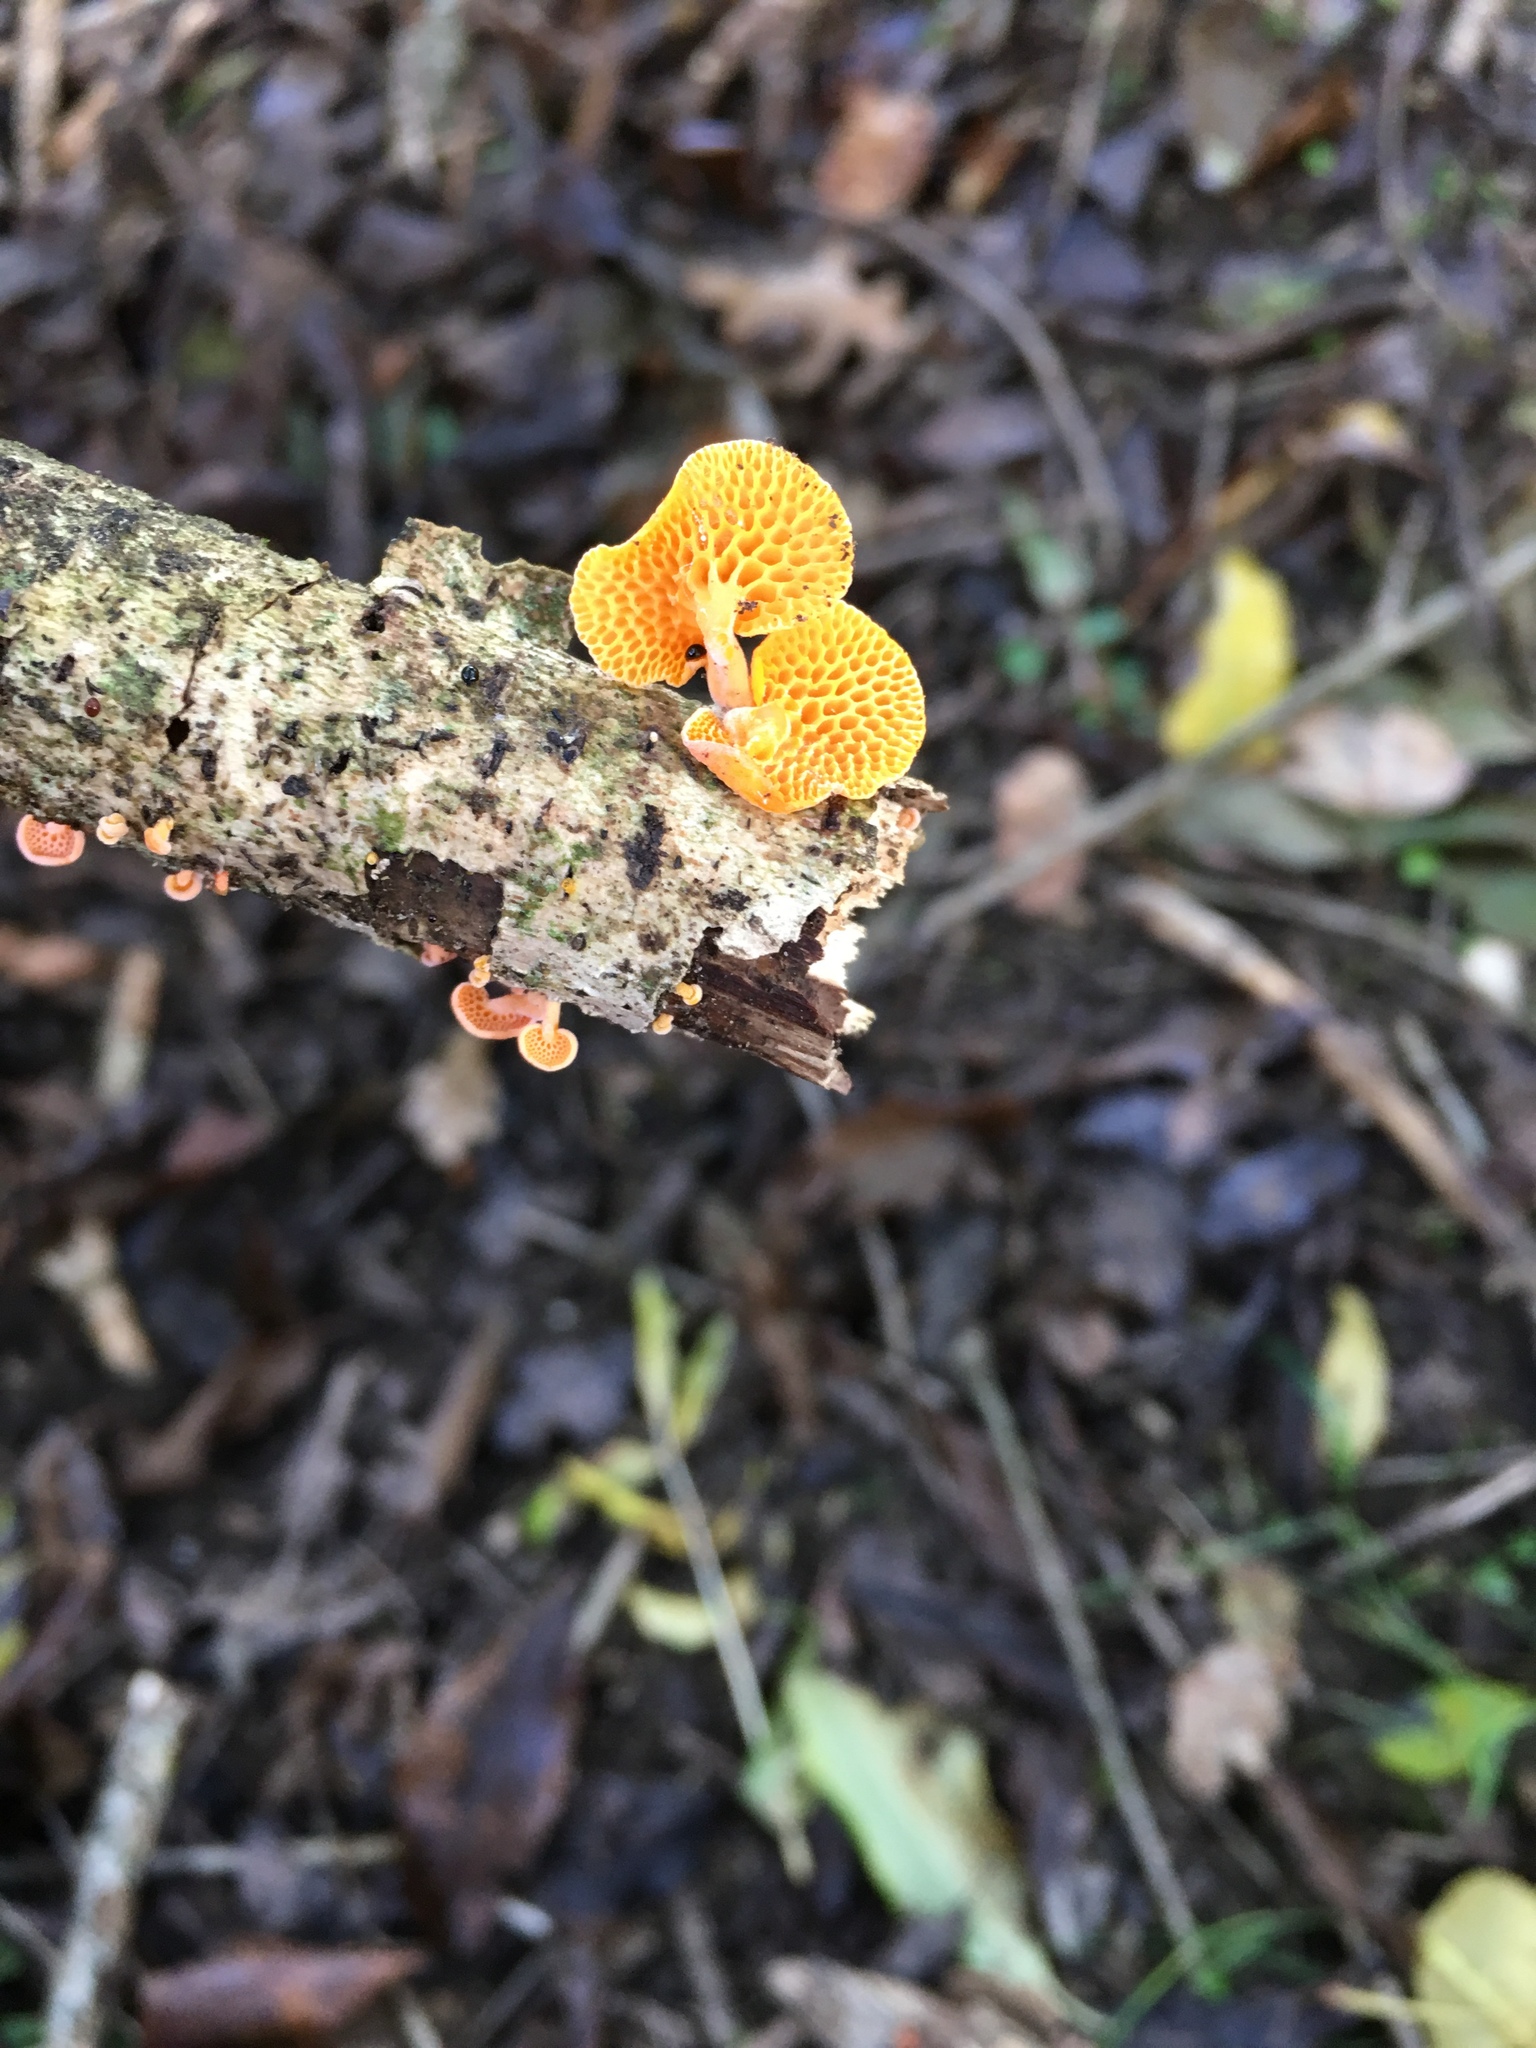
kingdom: Fungi
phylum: Basidiomycota
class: Agaricomycetes
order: Agaricales
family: Mycenaceae
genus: Favolaschia
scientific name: Favolaschia claudopus
